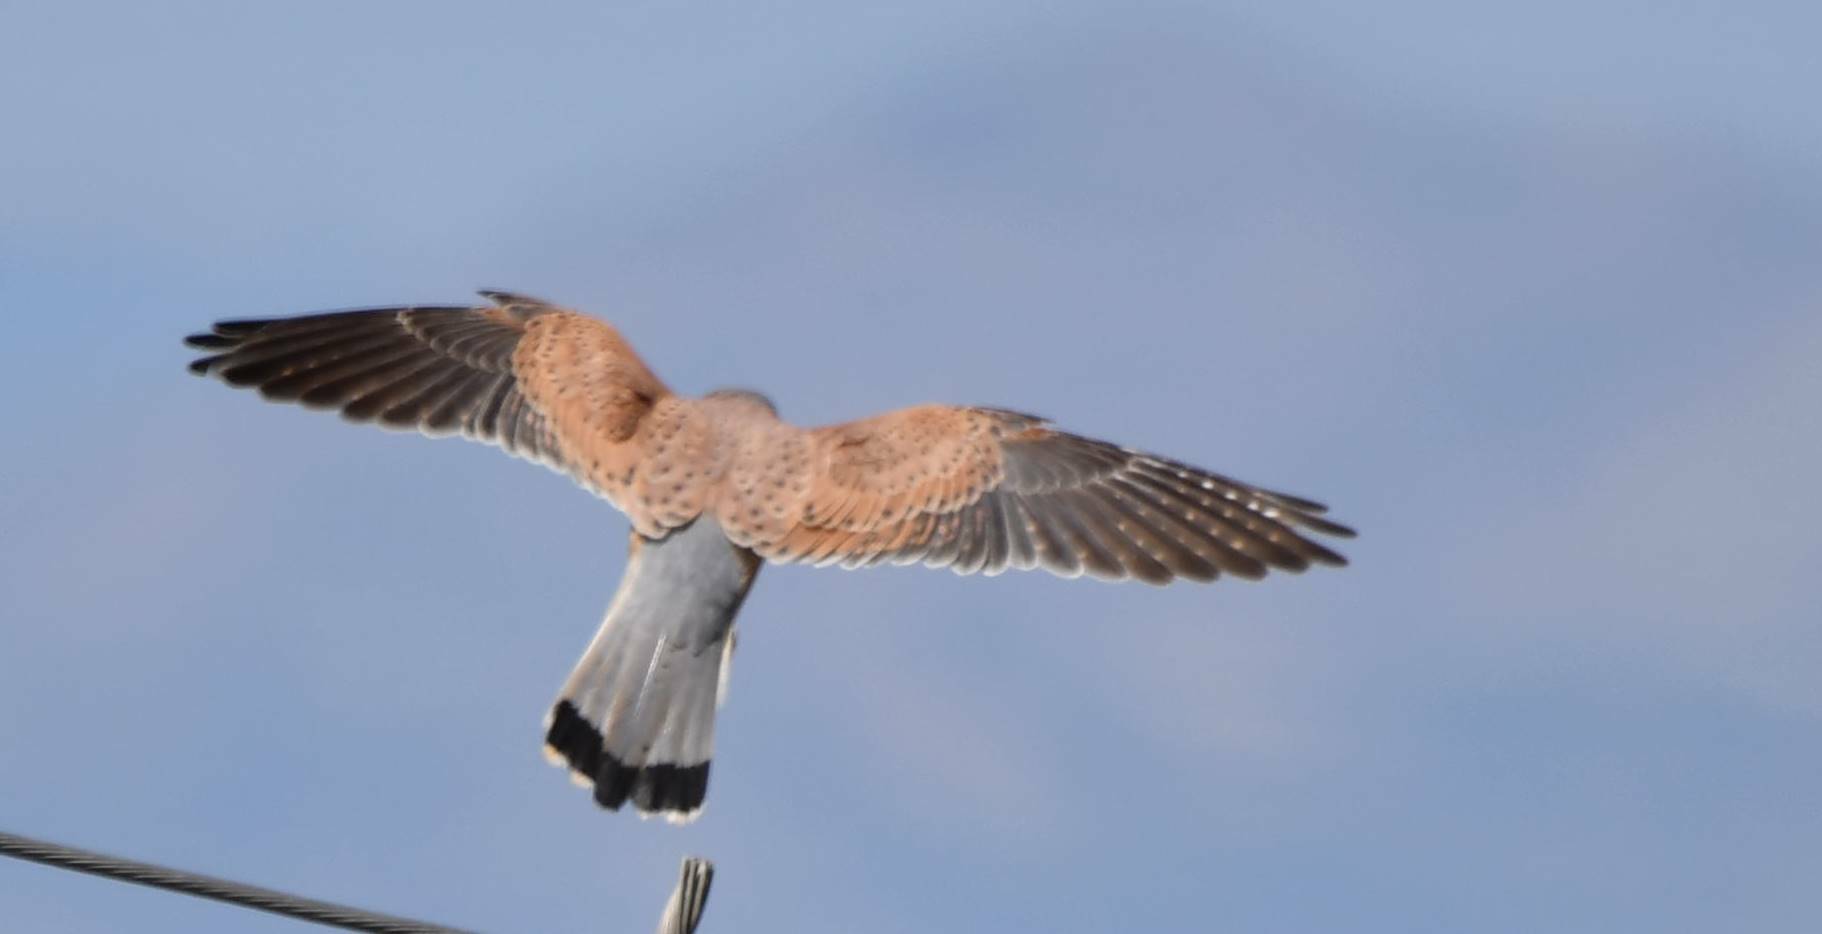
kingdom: Animalia
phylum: Chordata
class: Aves
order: Falconiformes
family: Falconidae
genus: Falco
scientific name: Falco tinnunculus
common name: Common kestrel
